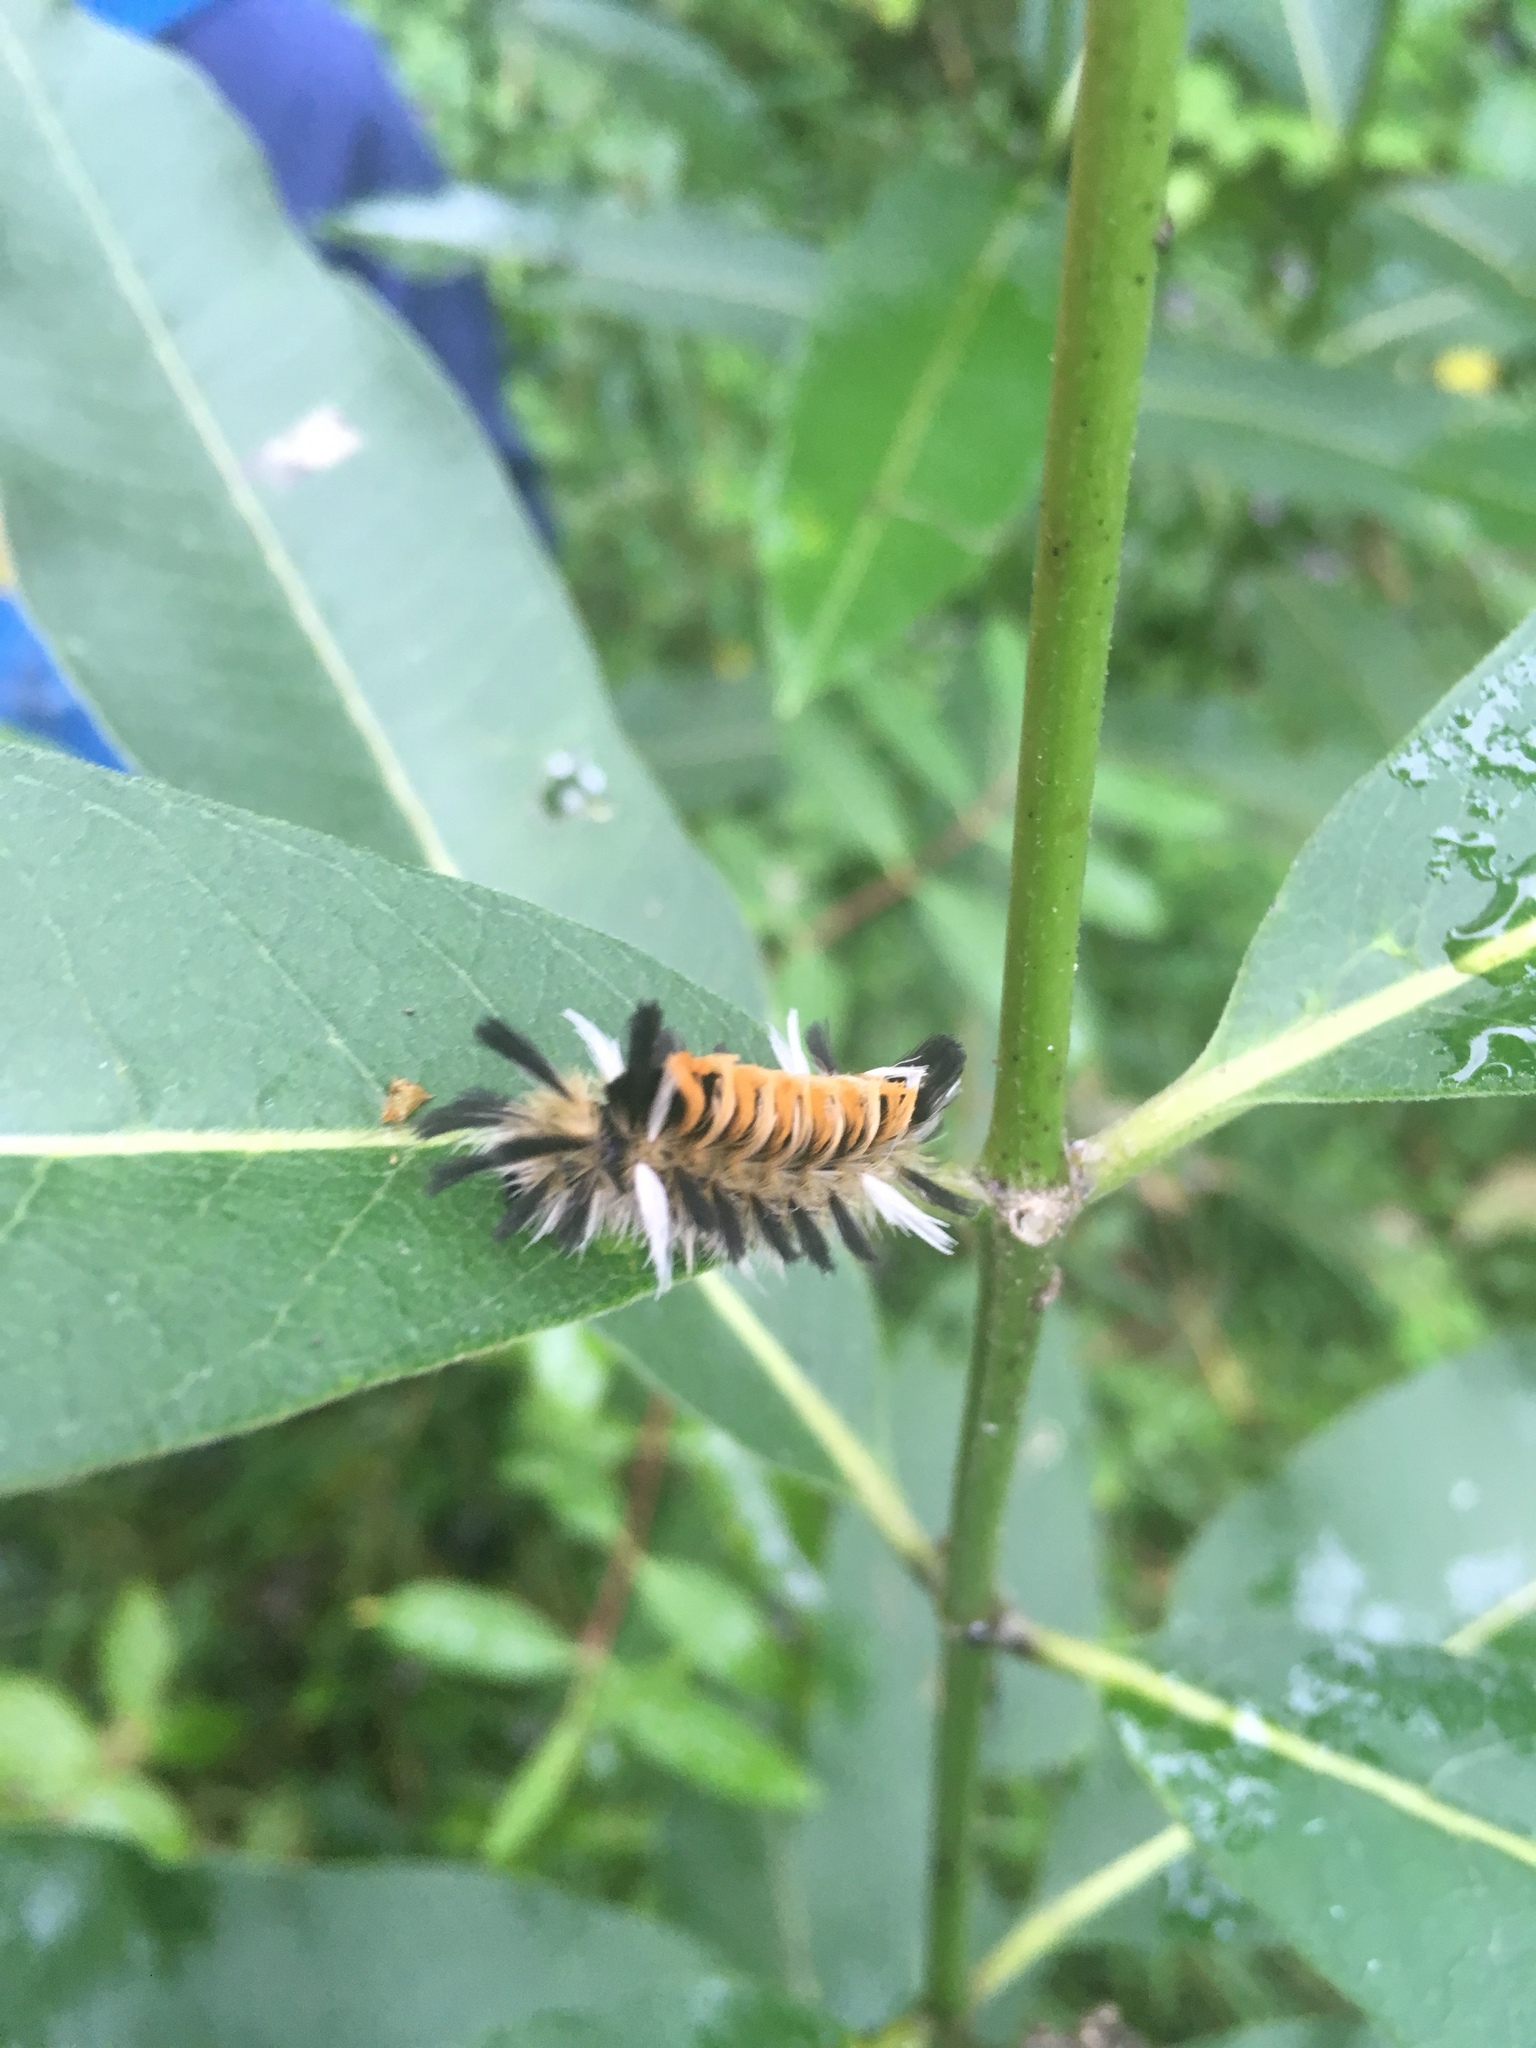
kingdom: Animalia
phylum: Arthropoda
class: Insecta
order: Lepidoptera
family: Erebidae
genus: Euchaetes
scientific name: Euchaetes egle
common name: Milkweed tussock moth
